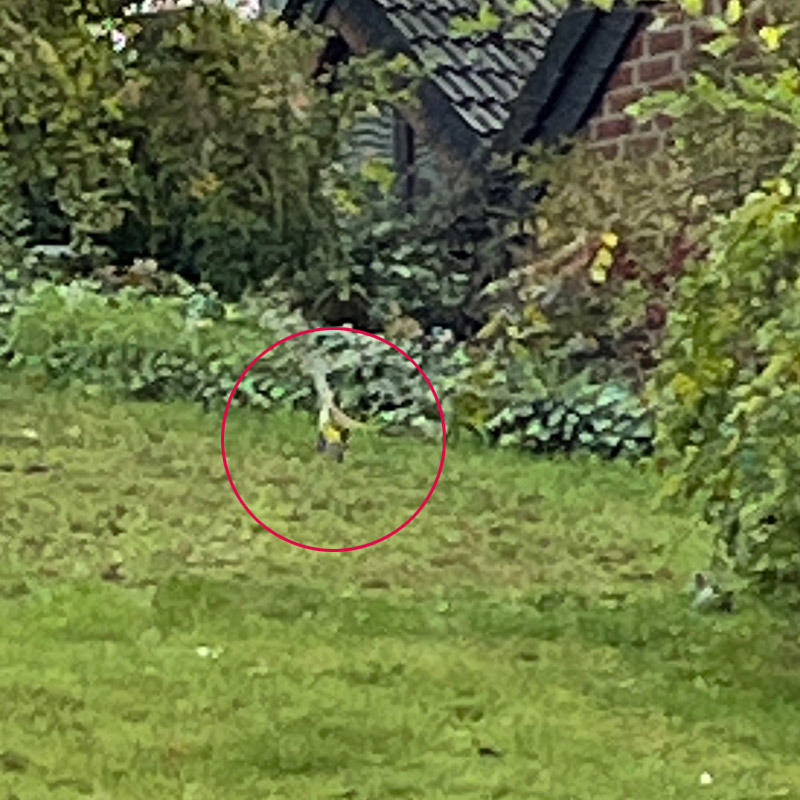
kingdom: Animalia
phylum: Chordata
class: Aves
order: Piciformes
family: Picidae
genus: Picus
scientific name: Picus viridis
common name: European green woodpecker
